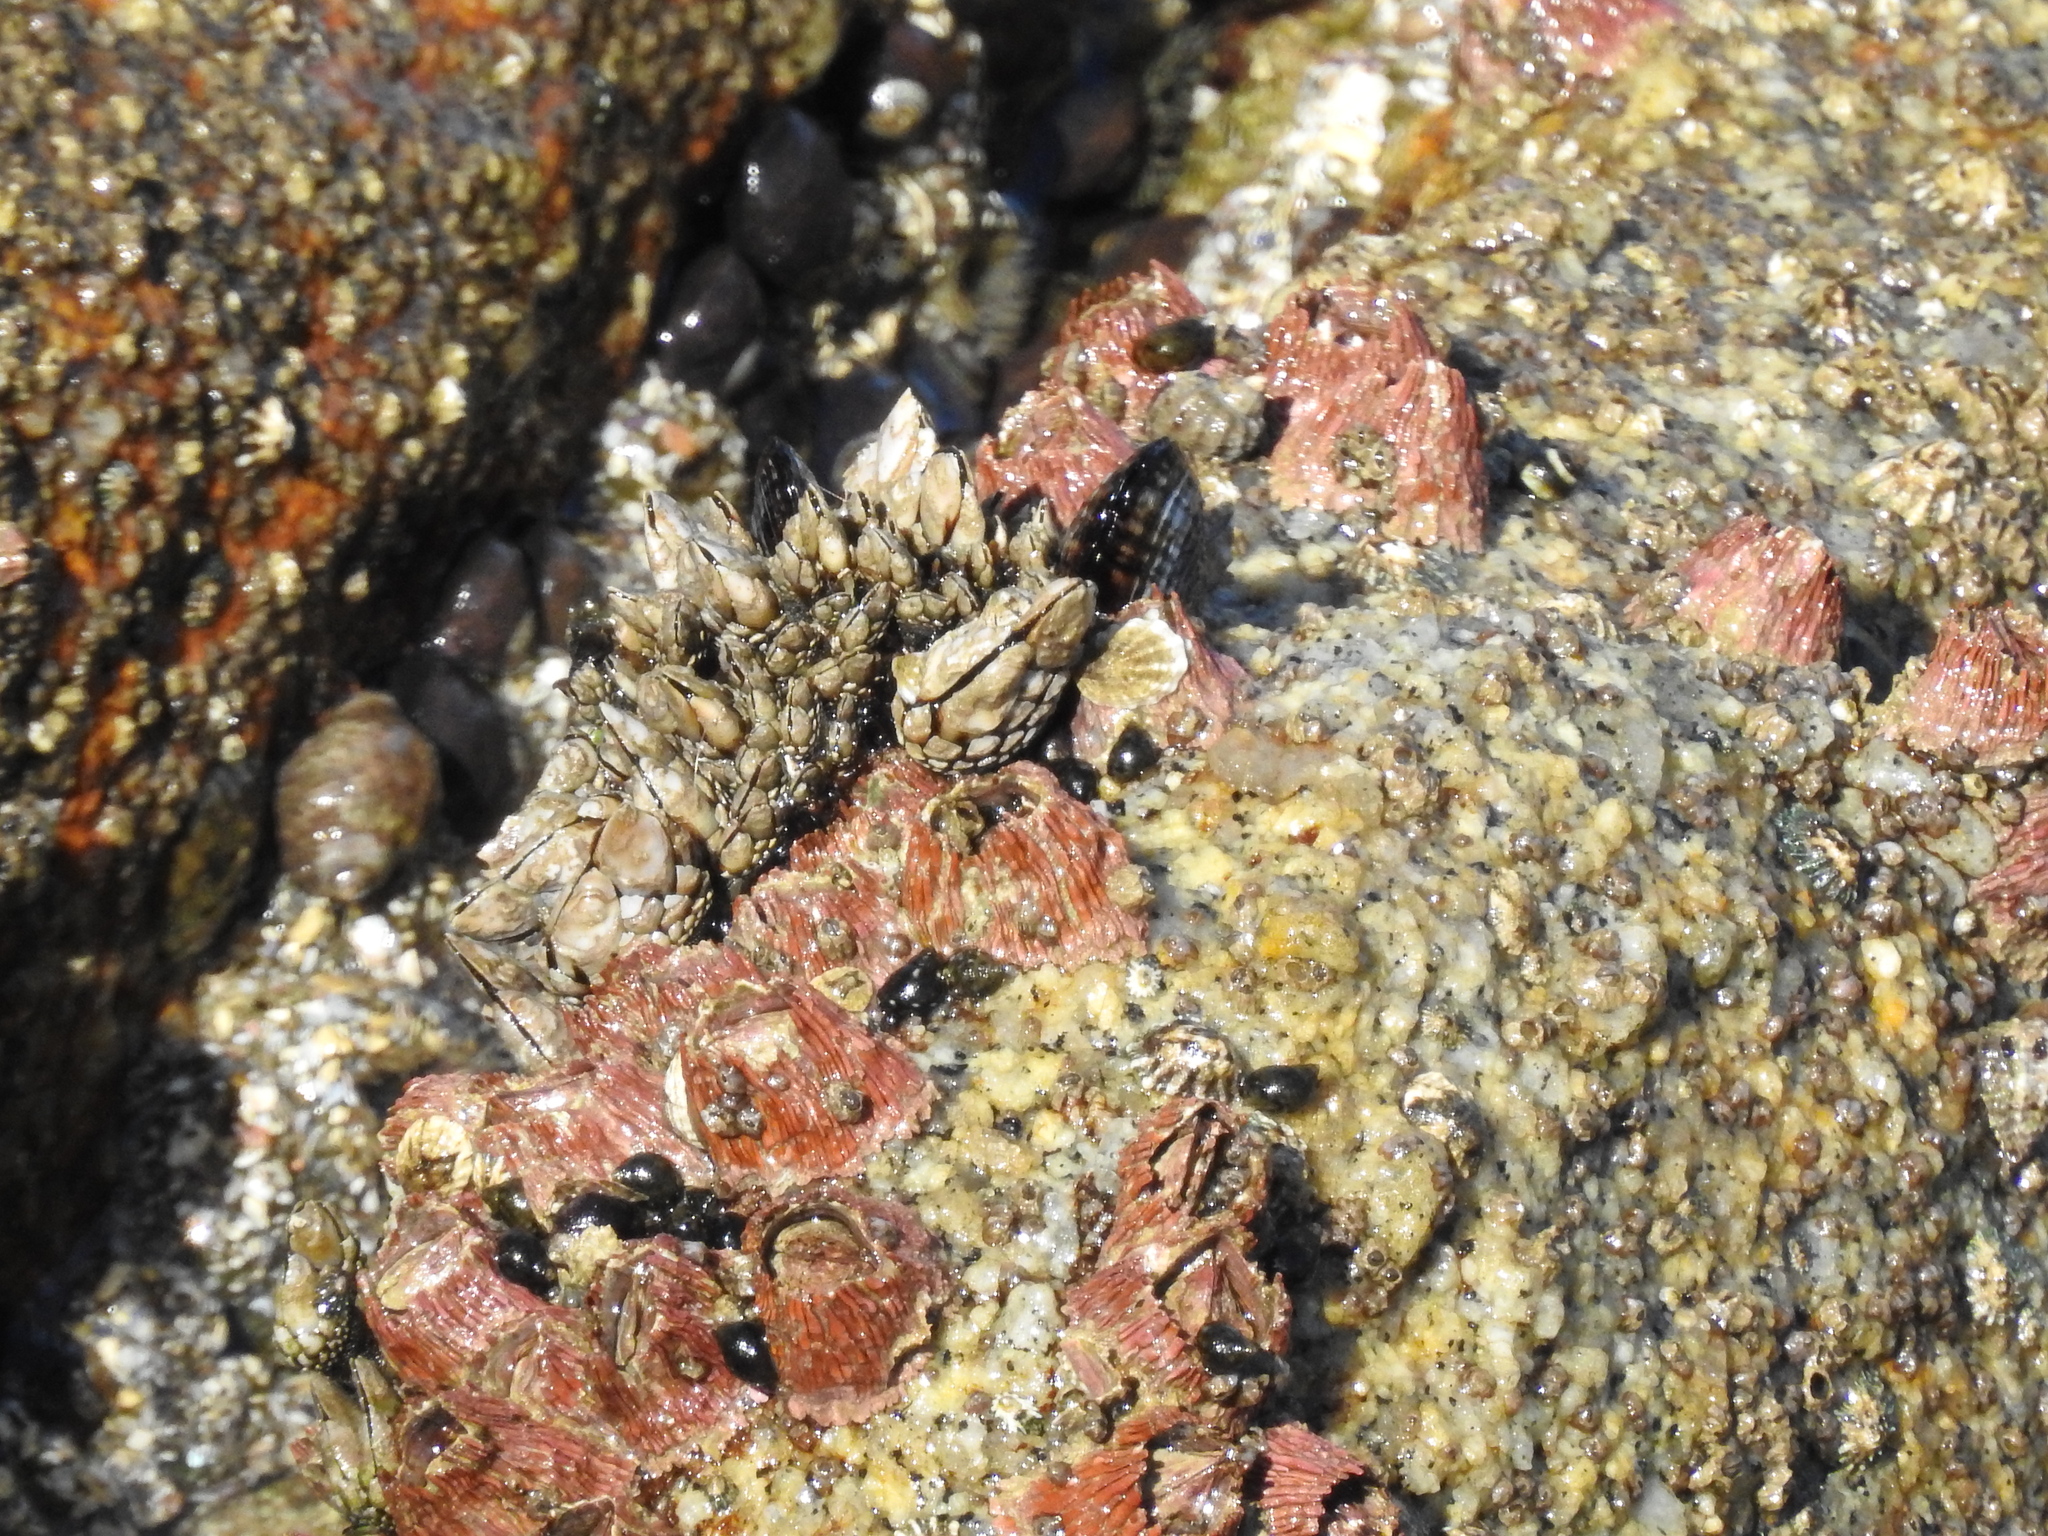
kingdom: Animalia
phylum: Arthropoda
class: Maxillopoda
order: Pedunculata
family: Pollicipedidae
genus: Pollicipes
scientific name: Pollicipes polymerus
